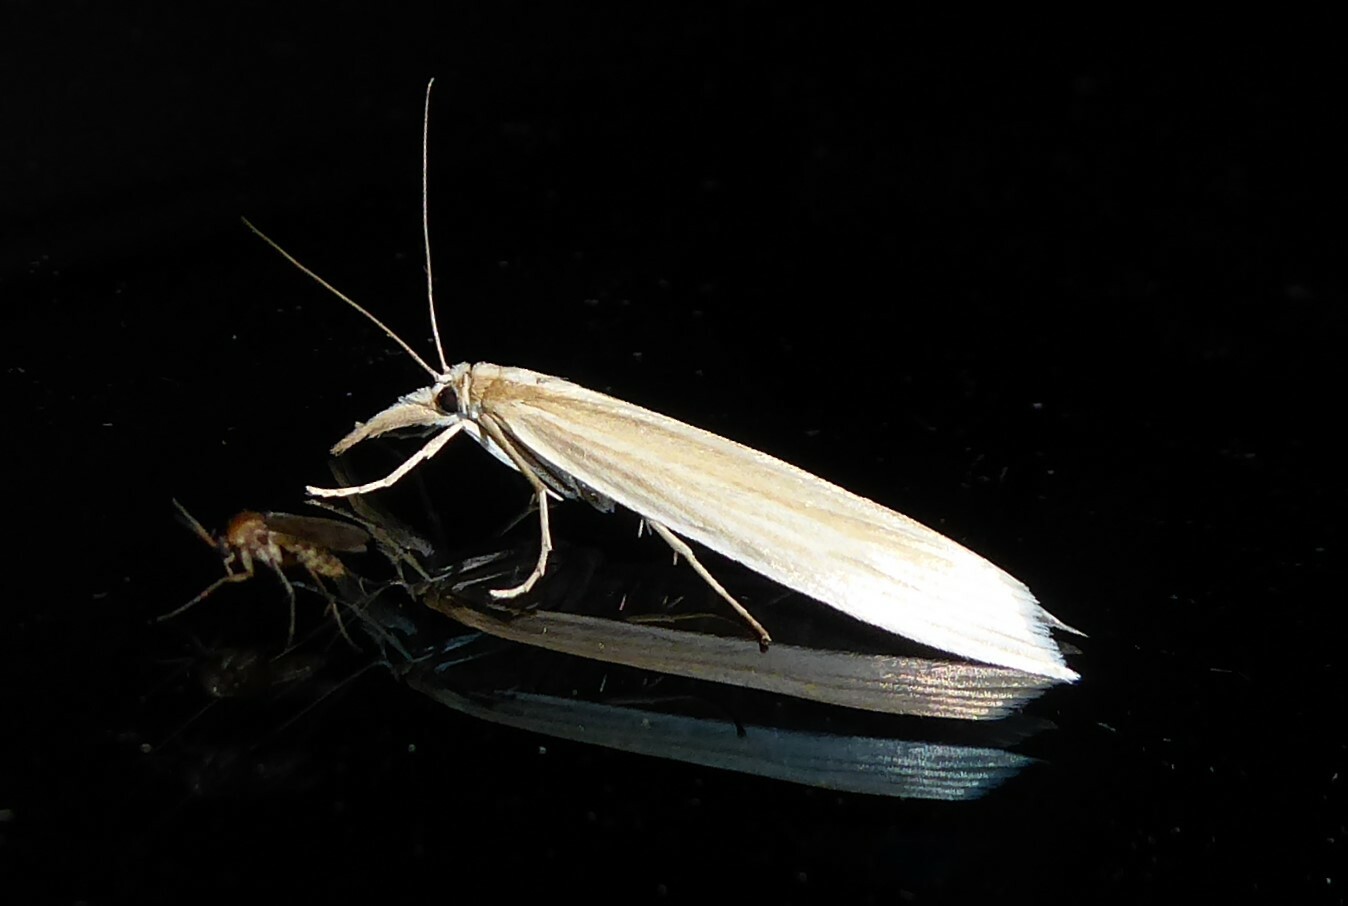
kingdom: Animalia
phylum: Arthropoda
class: Insecta
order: Lepidoptera
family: Crambidae
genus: Orocrambus
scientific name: Orocrambus angustipennis
